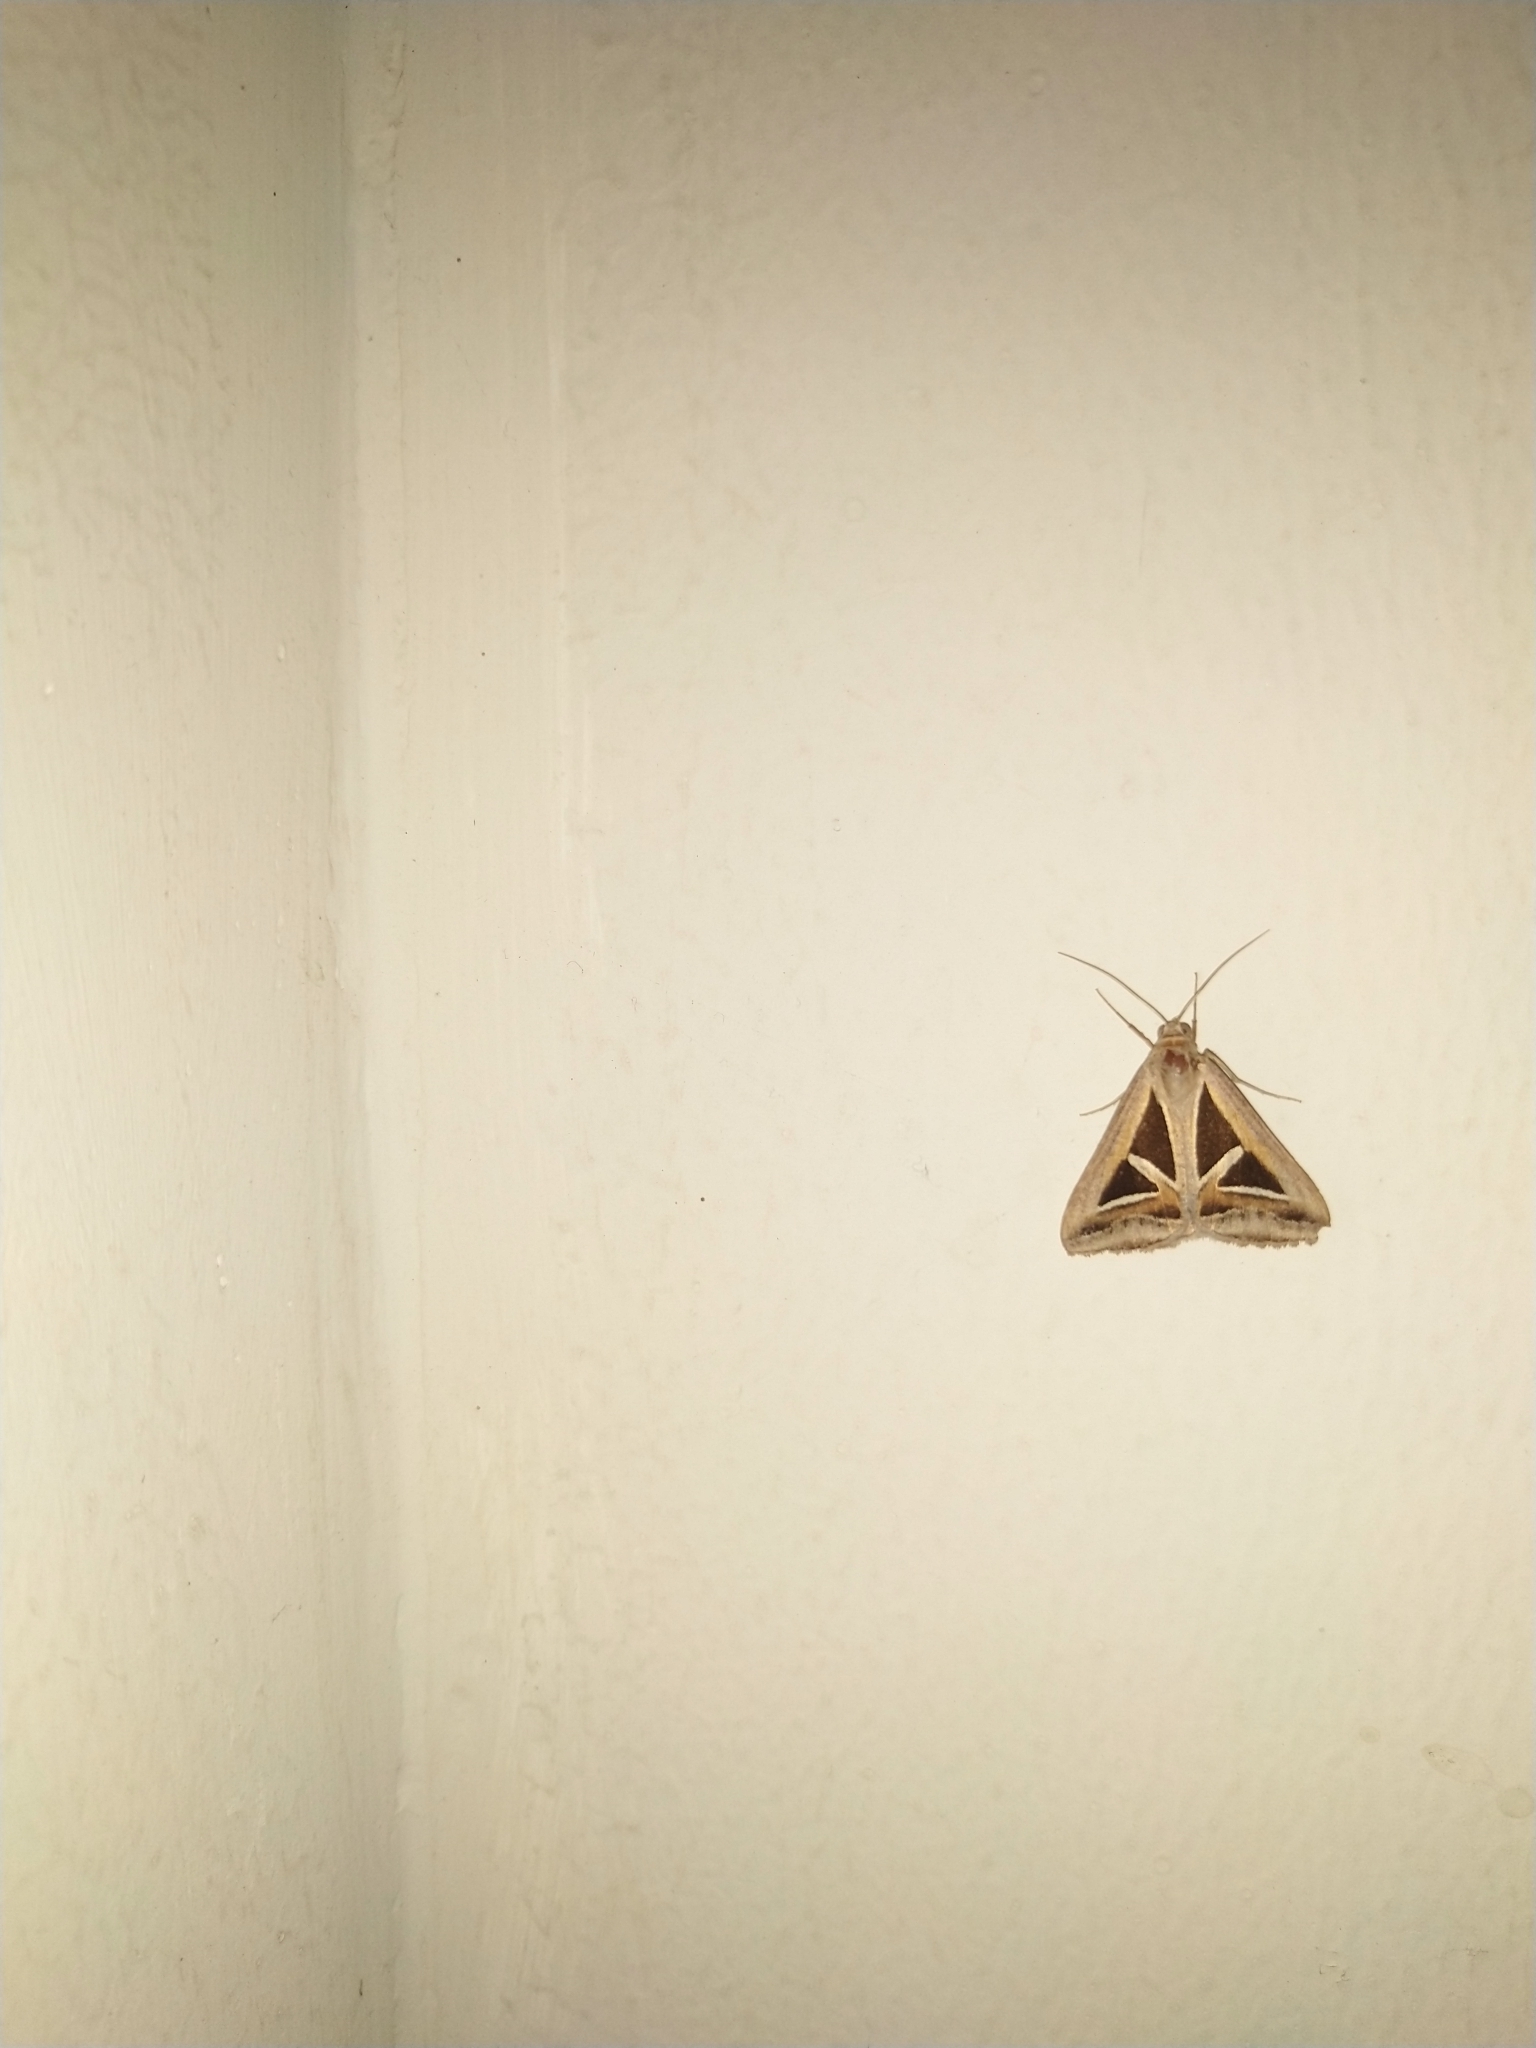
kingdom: Animalia
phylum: Arthropoda
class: Insecta
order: Lepidoptera
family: Erebidae
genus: Trigonodes
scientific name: Trigonodes hyppasia
